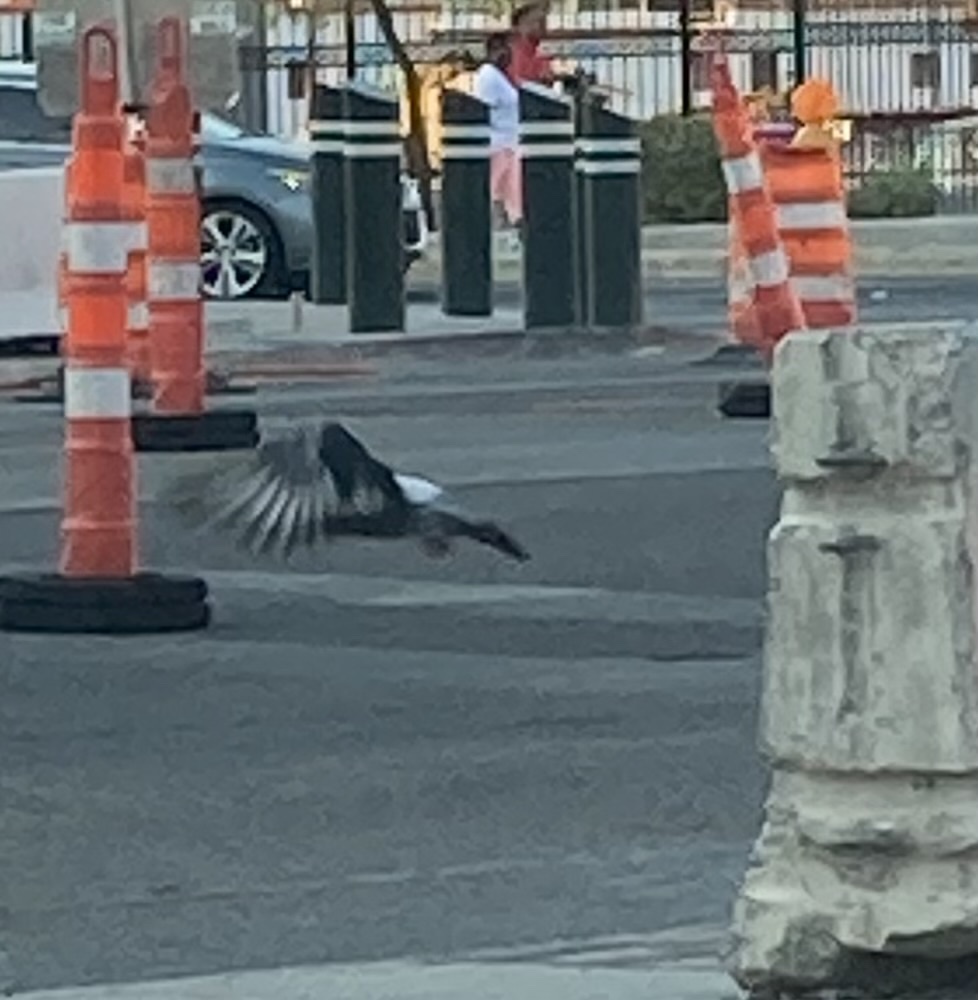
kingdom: Animalia
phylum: Chordata
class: Aves
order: Columbiformes
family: Columbidae
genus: Columba
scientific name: Columba livia
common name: Rock pigeon
